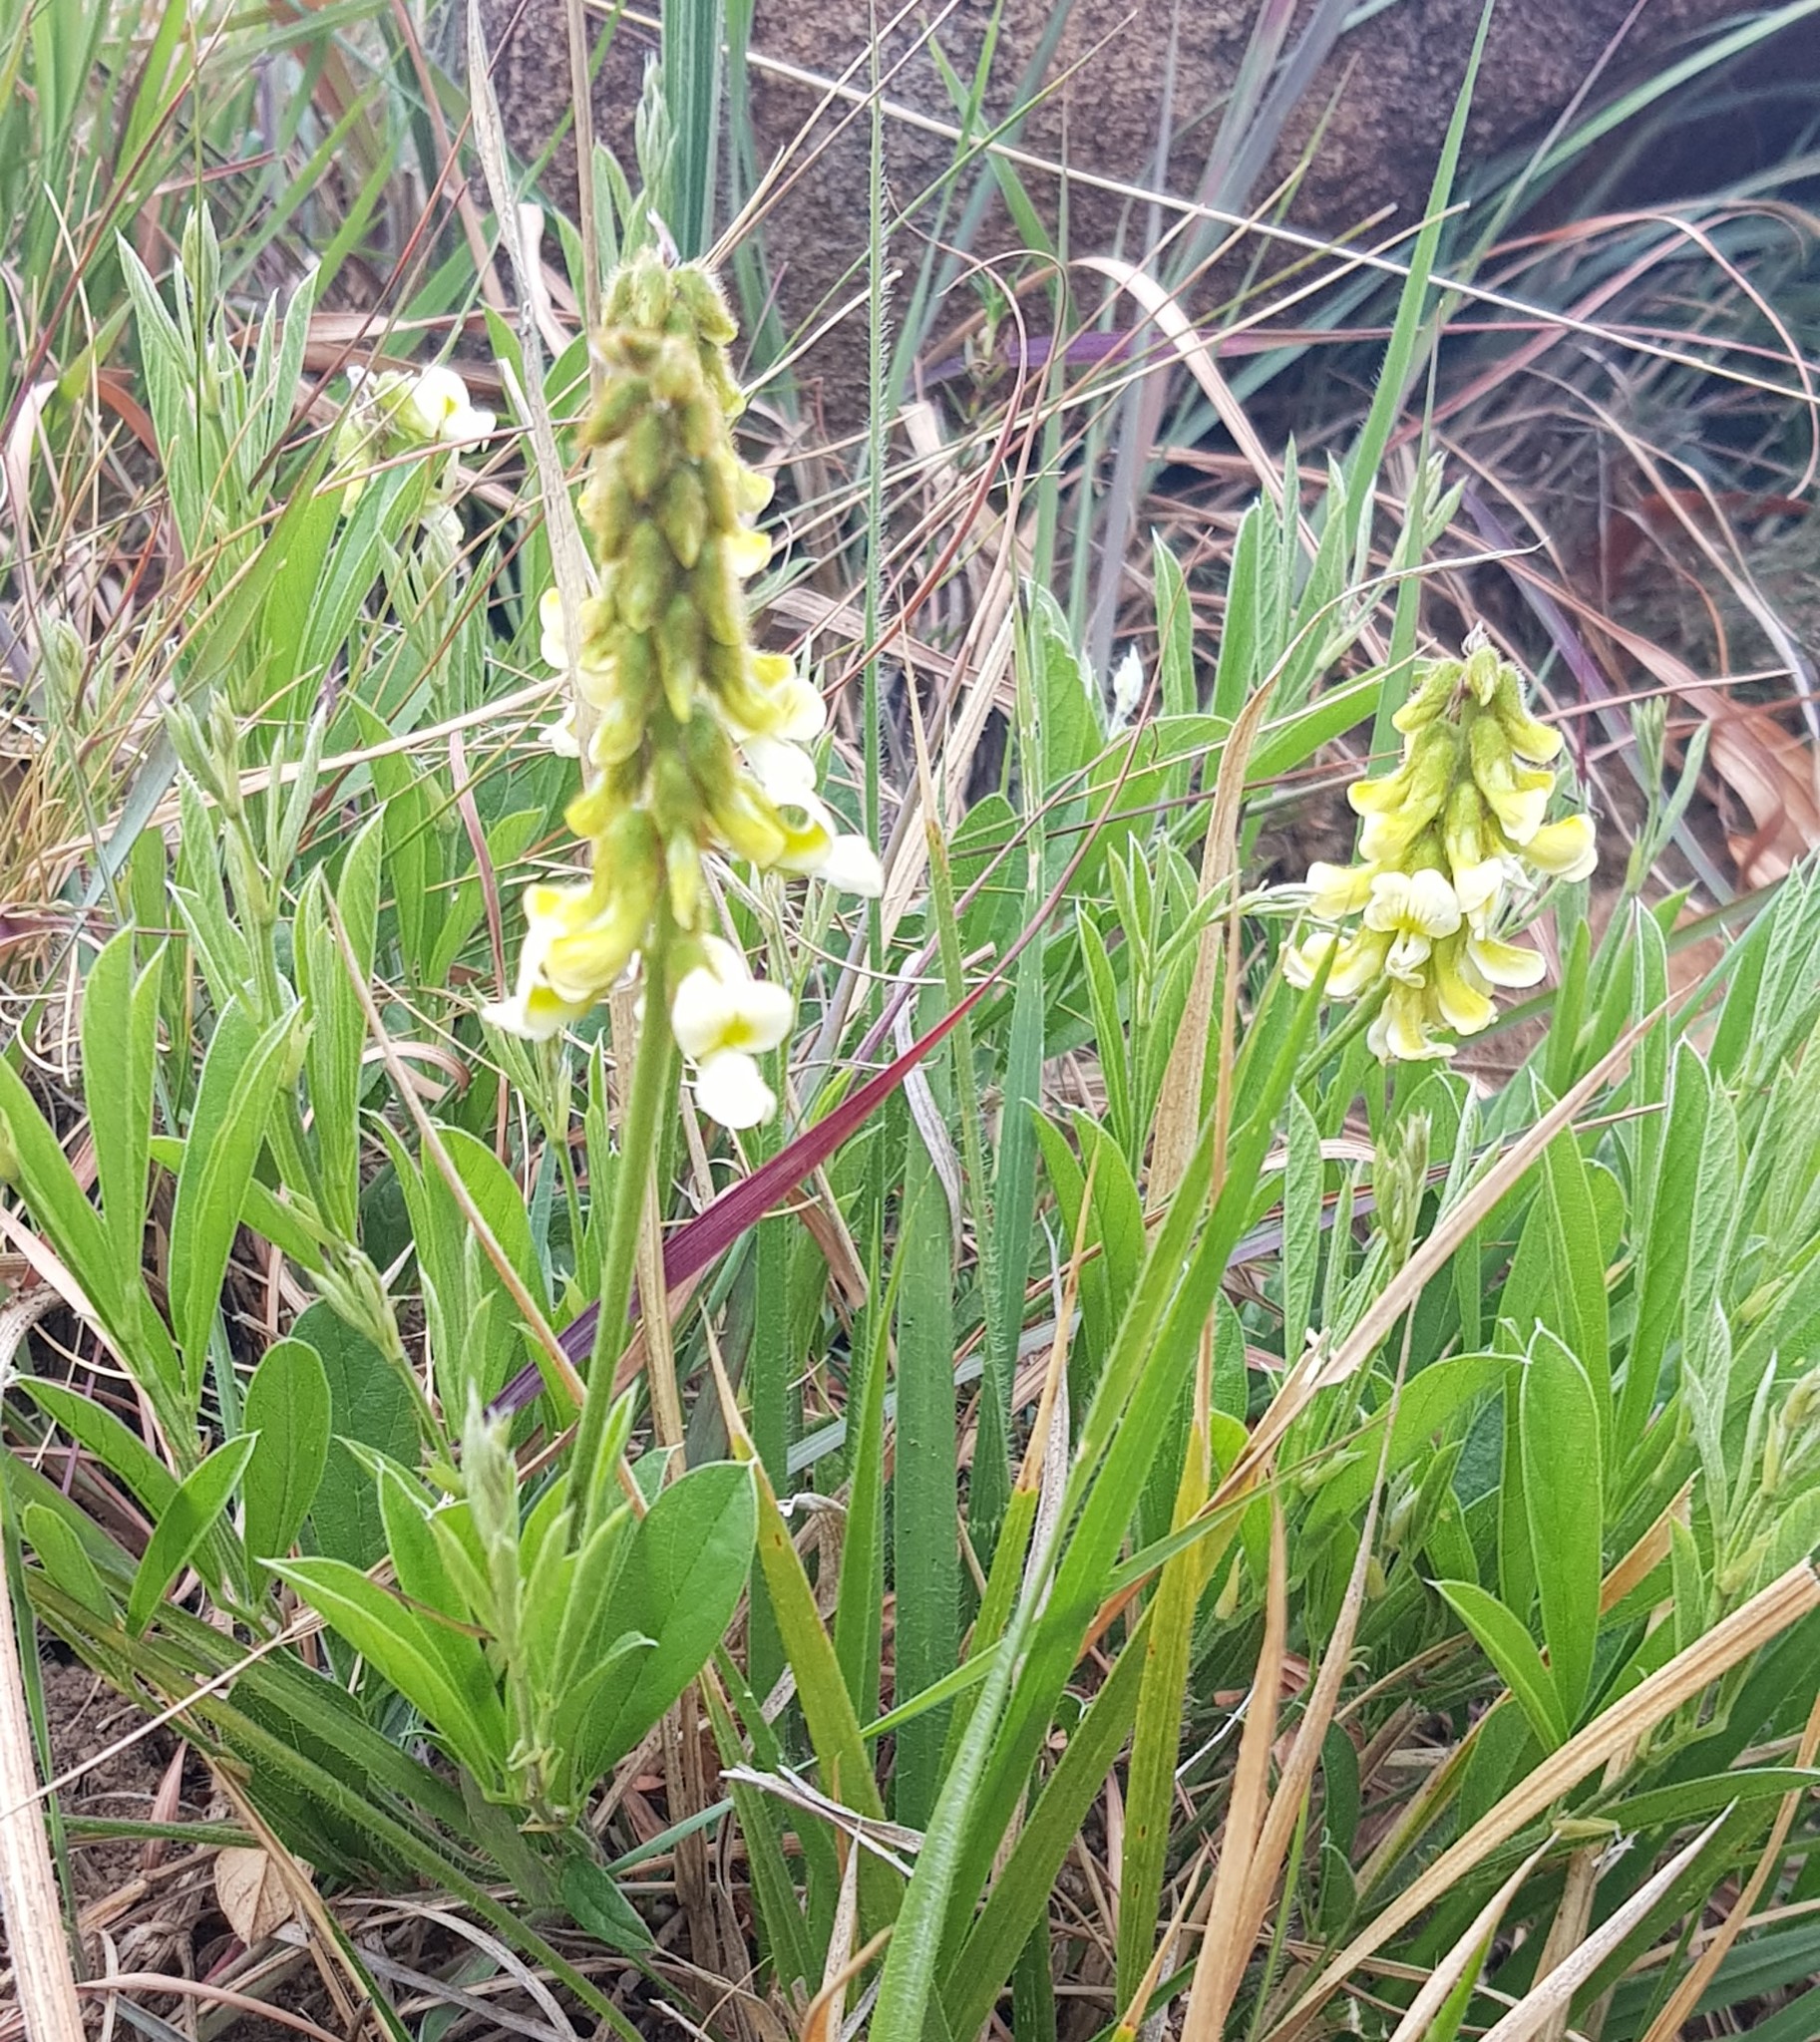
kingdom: Plantae
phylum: Tracheophyta
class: Magnoliopsida
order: Fabales
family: Fabaceae
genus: Eriosema
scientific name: Eriosema kraussianum
